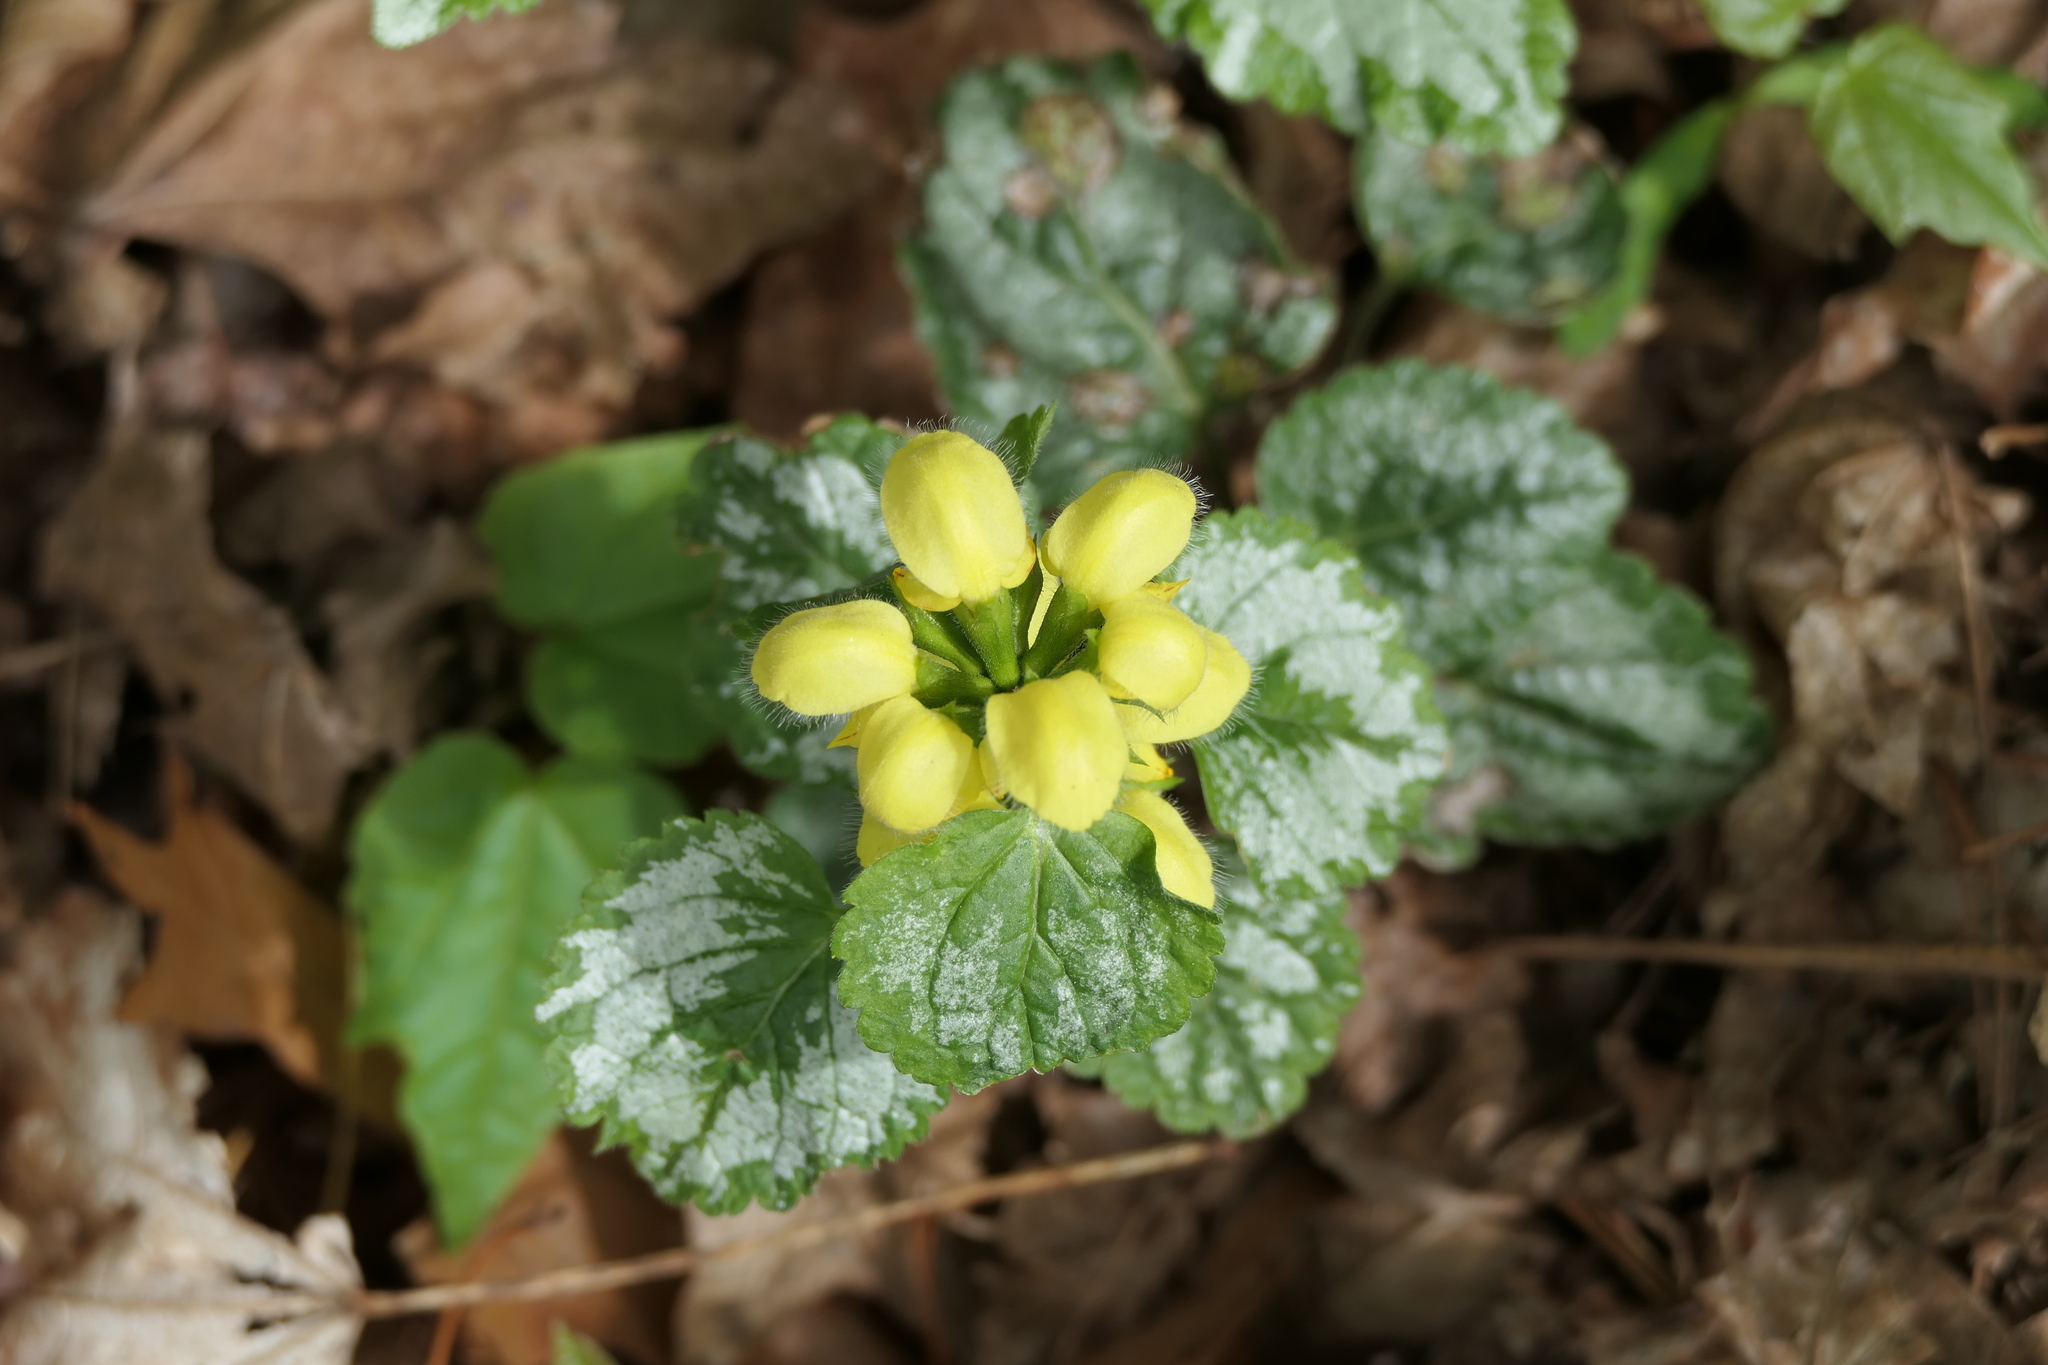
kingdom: Plantae
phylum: Tracheophyta
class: Magnoliopsida
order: Lamiales
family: Lamiaceae
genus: Lamium
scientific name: Lamium galeobdolon
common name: Yellow archangel
